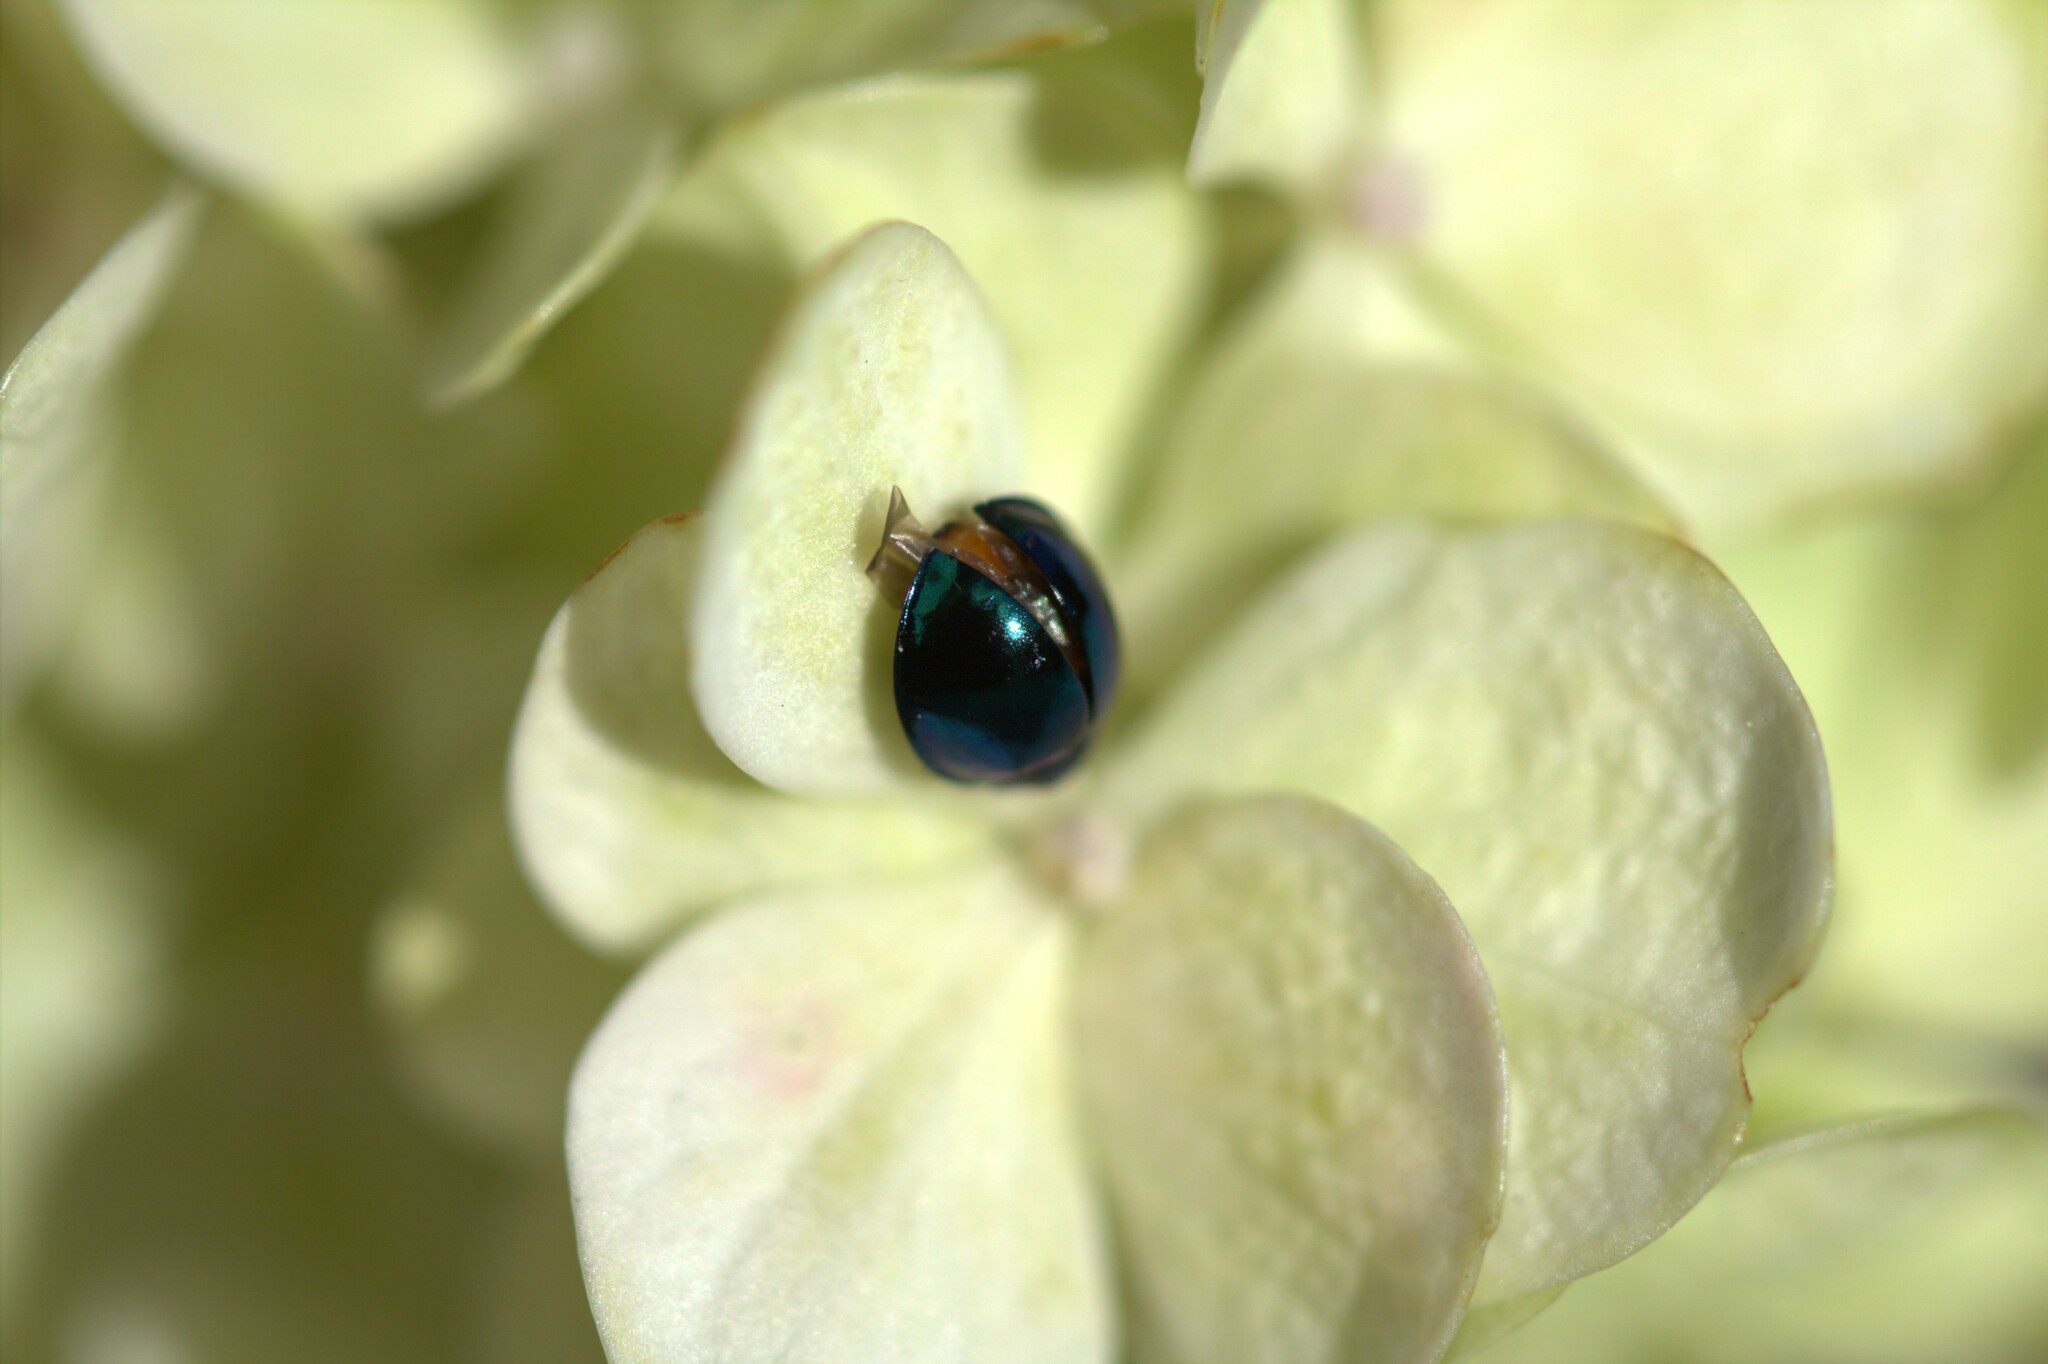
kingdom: Animalia
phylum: Arthropoda
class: Insecta
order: Coleoptera
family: Coccinellidae
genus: Halmus
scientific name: Halmus chalybeus
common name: Steel blue ladybird beetle
